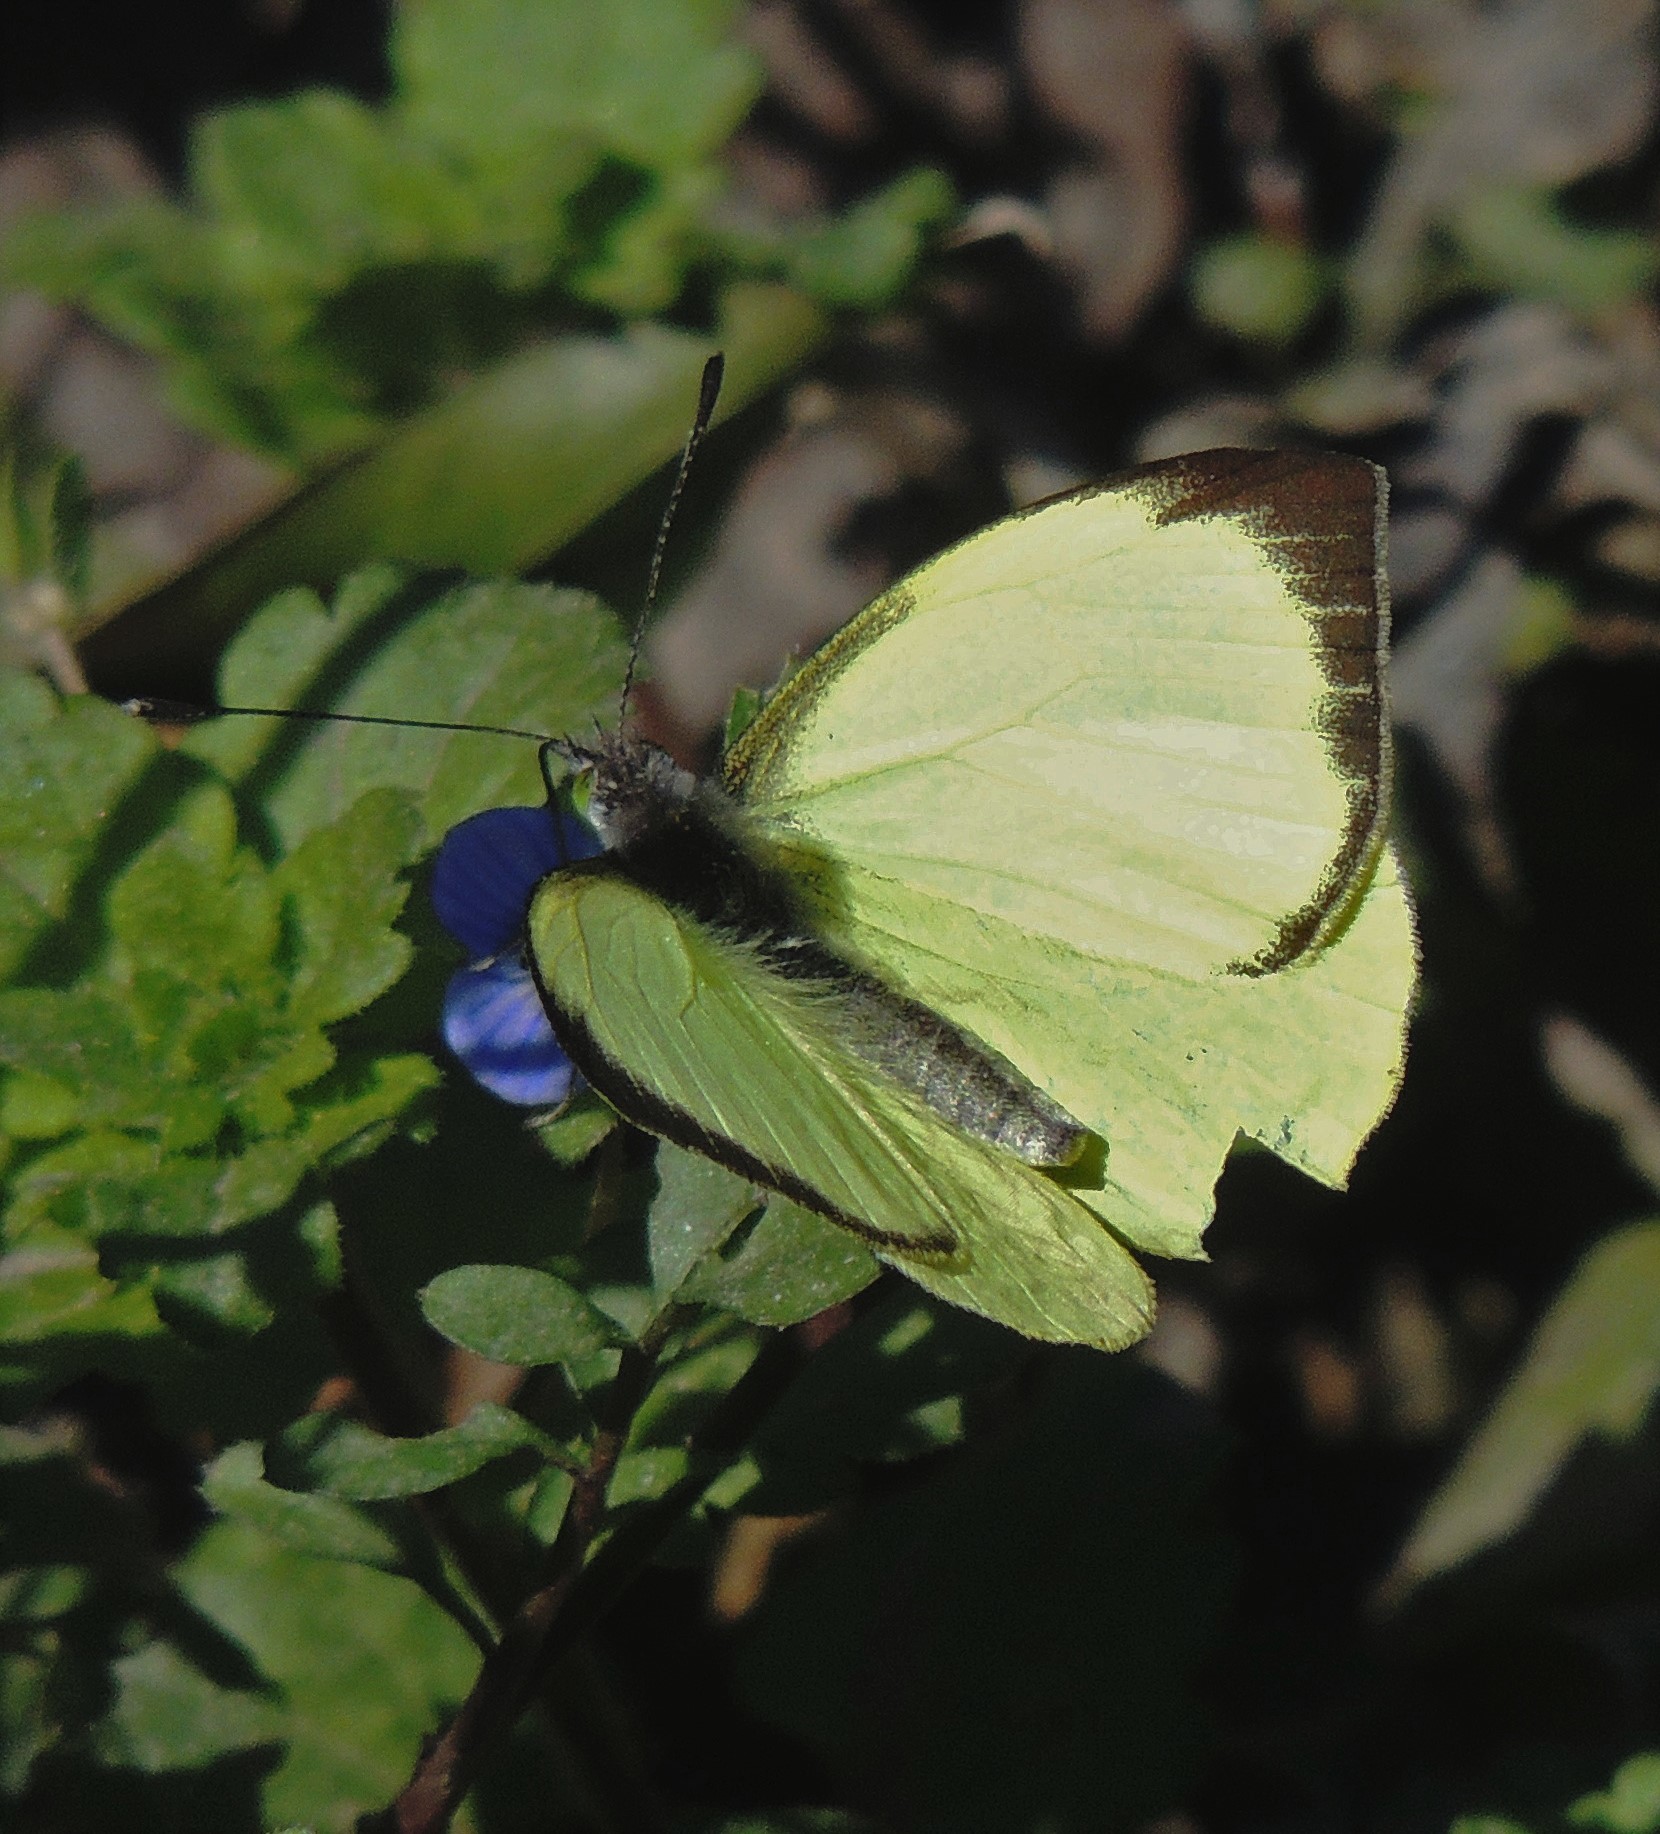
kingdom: Animalia
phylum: Arthropoda
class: Insecta
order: Lepidoptera
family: Pieridae
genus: Leptophobia
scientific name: Leptophobia diaguita
